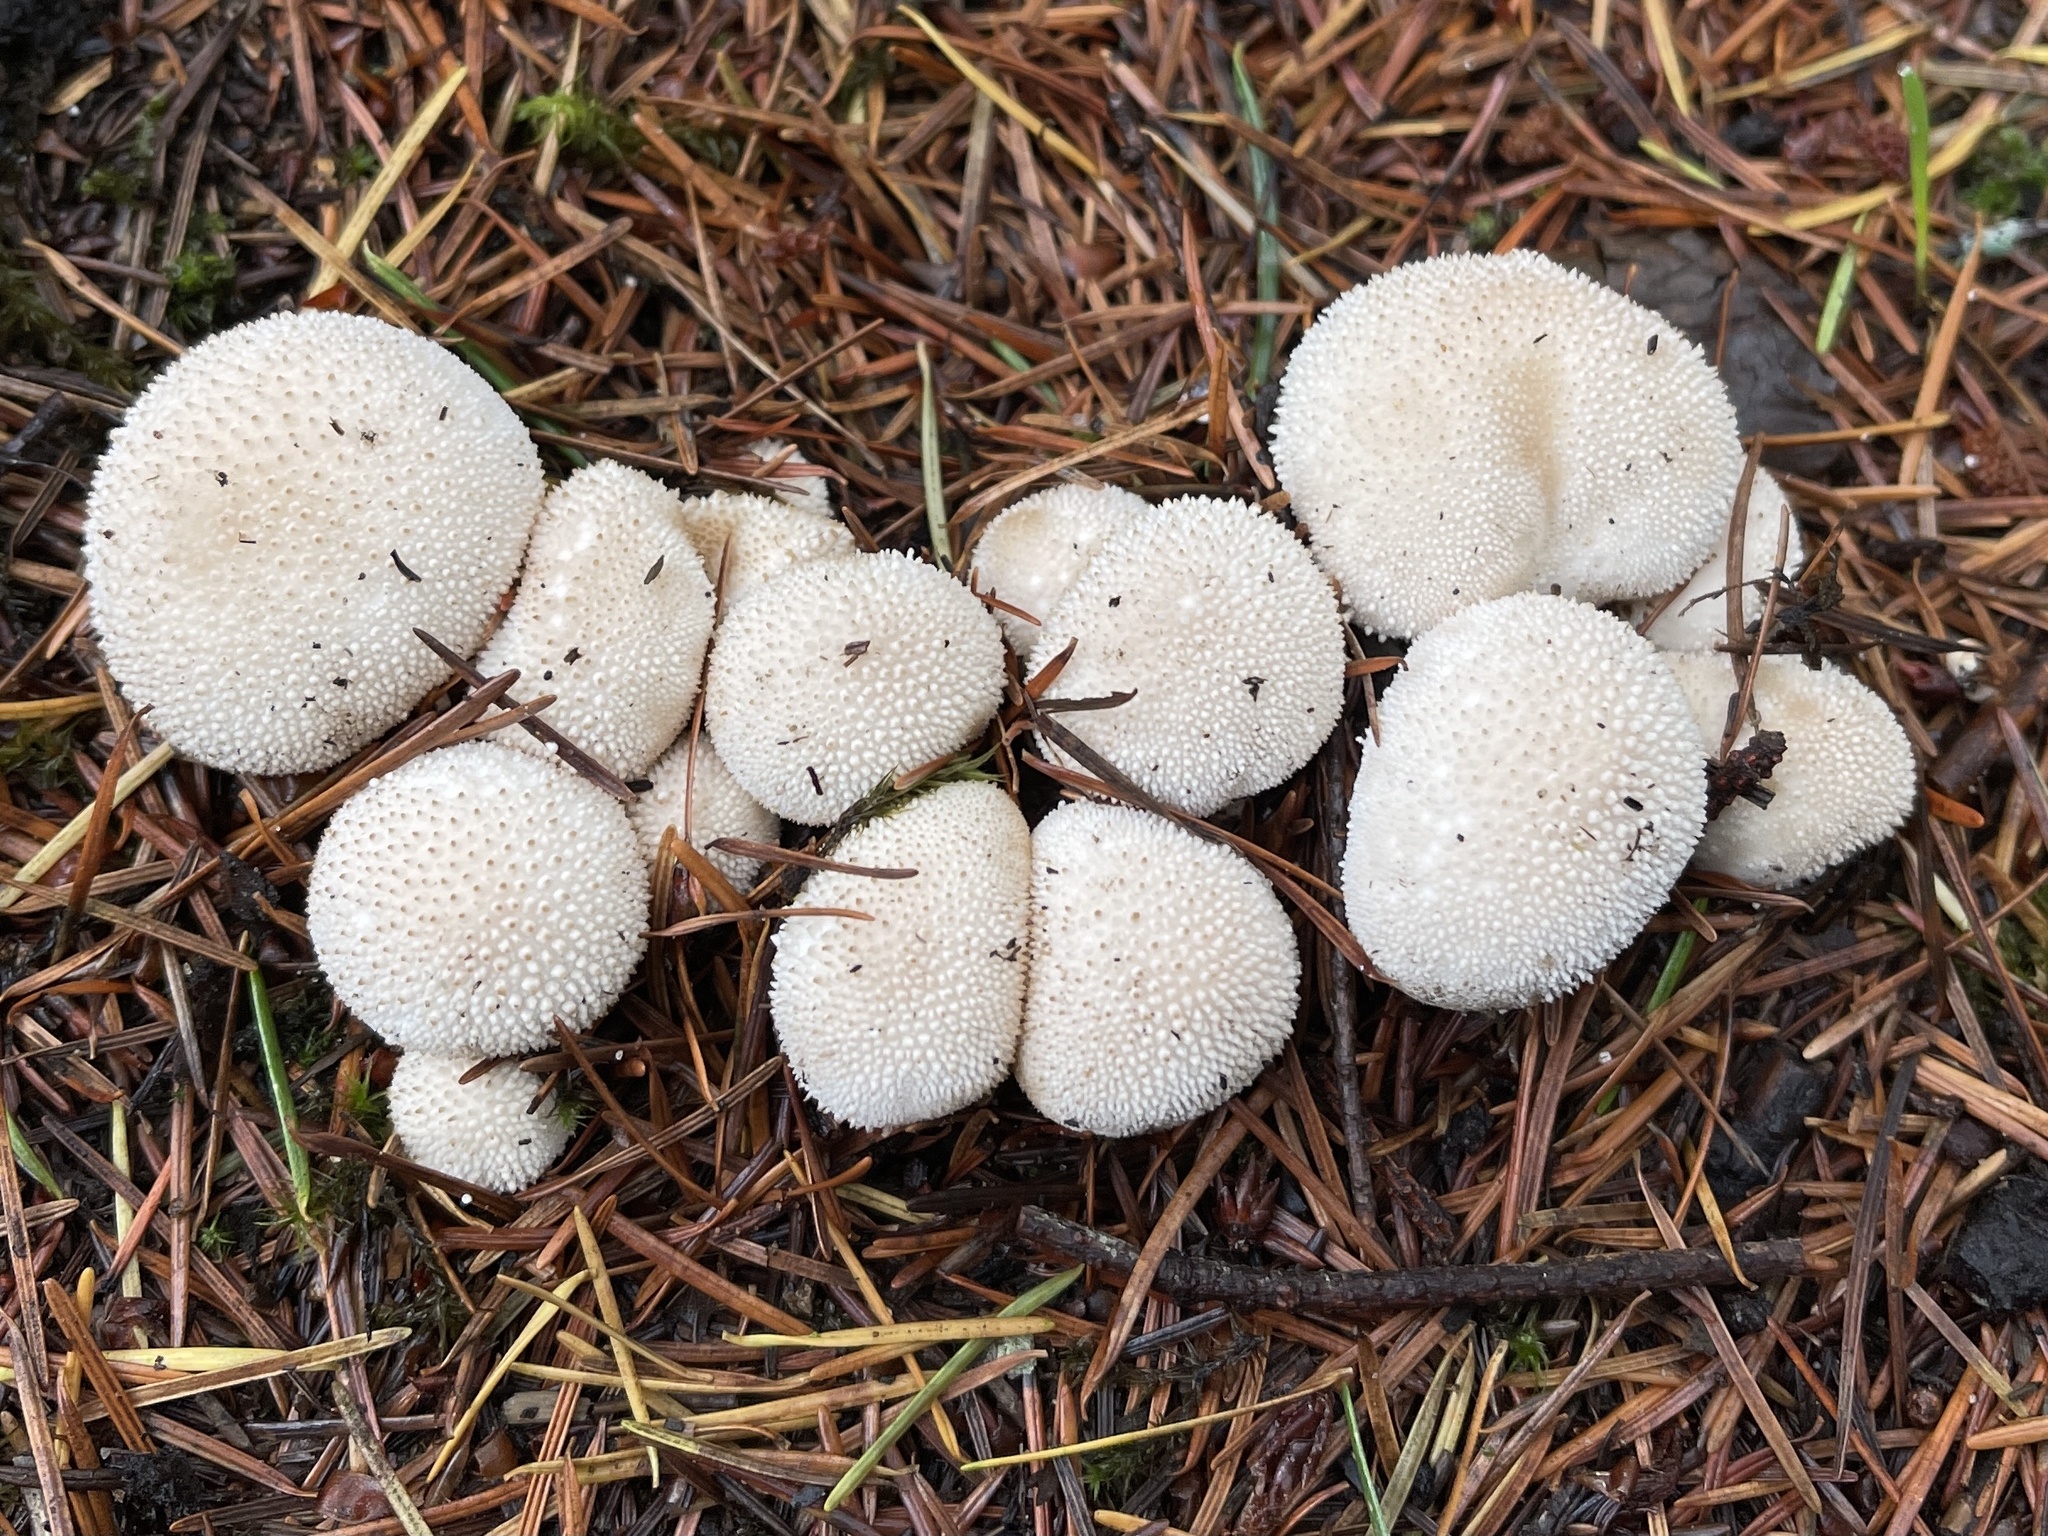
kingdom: Fungi
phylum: Basidiomycota
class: Agaricomycetes
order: Agaricales
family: Lycoperdaceae
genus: Lycoperdon
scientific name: Lycoperdon perlatum
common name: Common puffball
